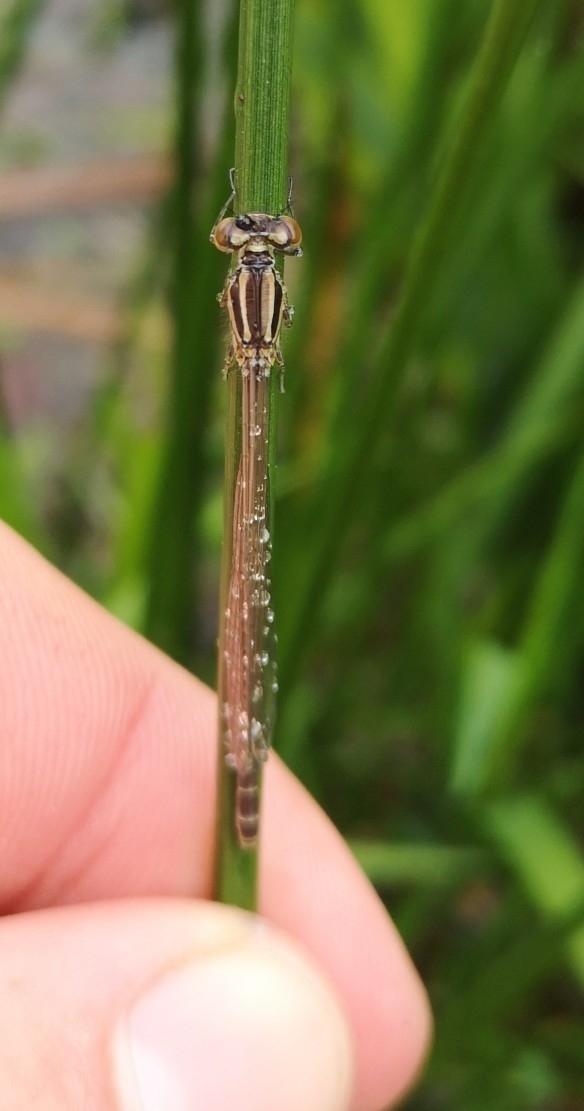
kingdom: Animalia
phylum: Arthropoda
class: Insecta
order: Odonata
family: Coenagrionidae
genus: Coenagrion
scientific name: Coenagrion puella
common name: Azure damselfly
